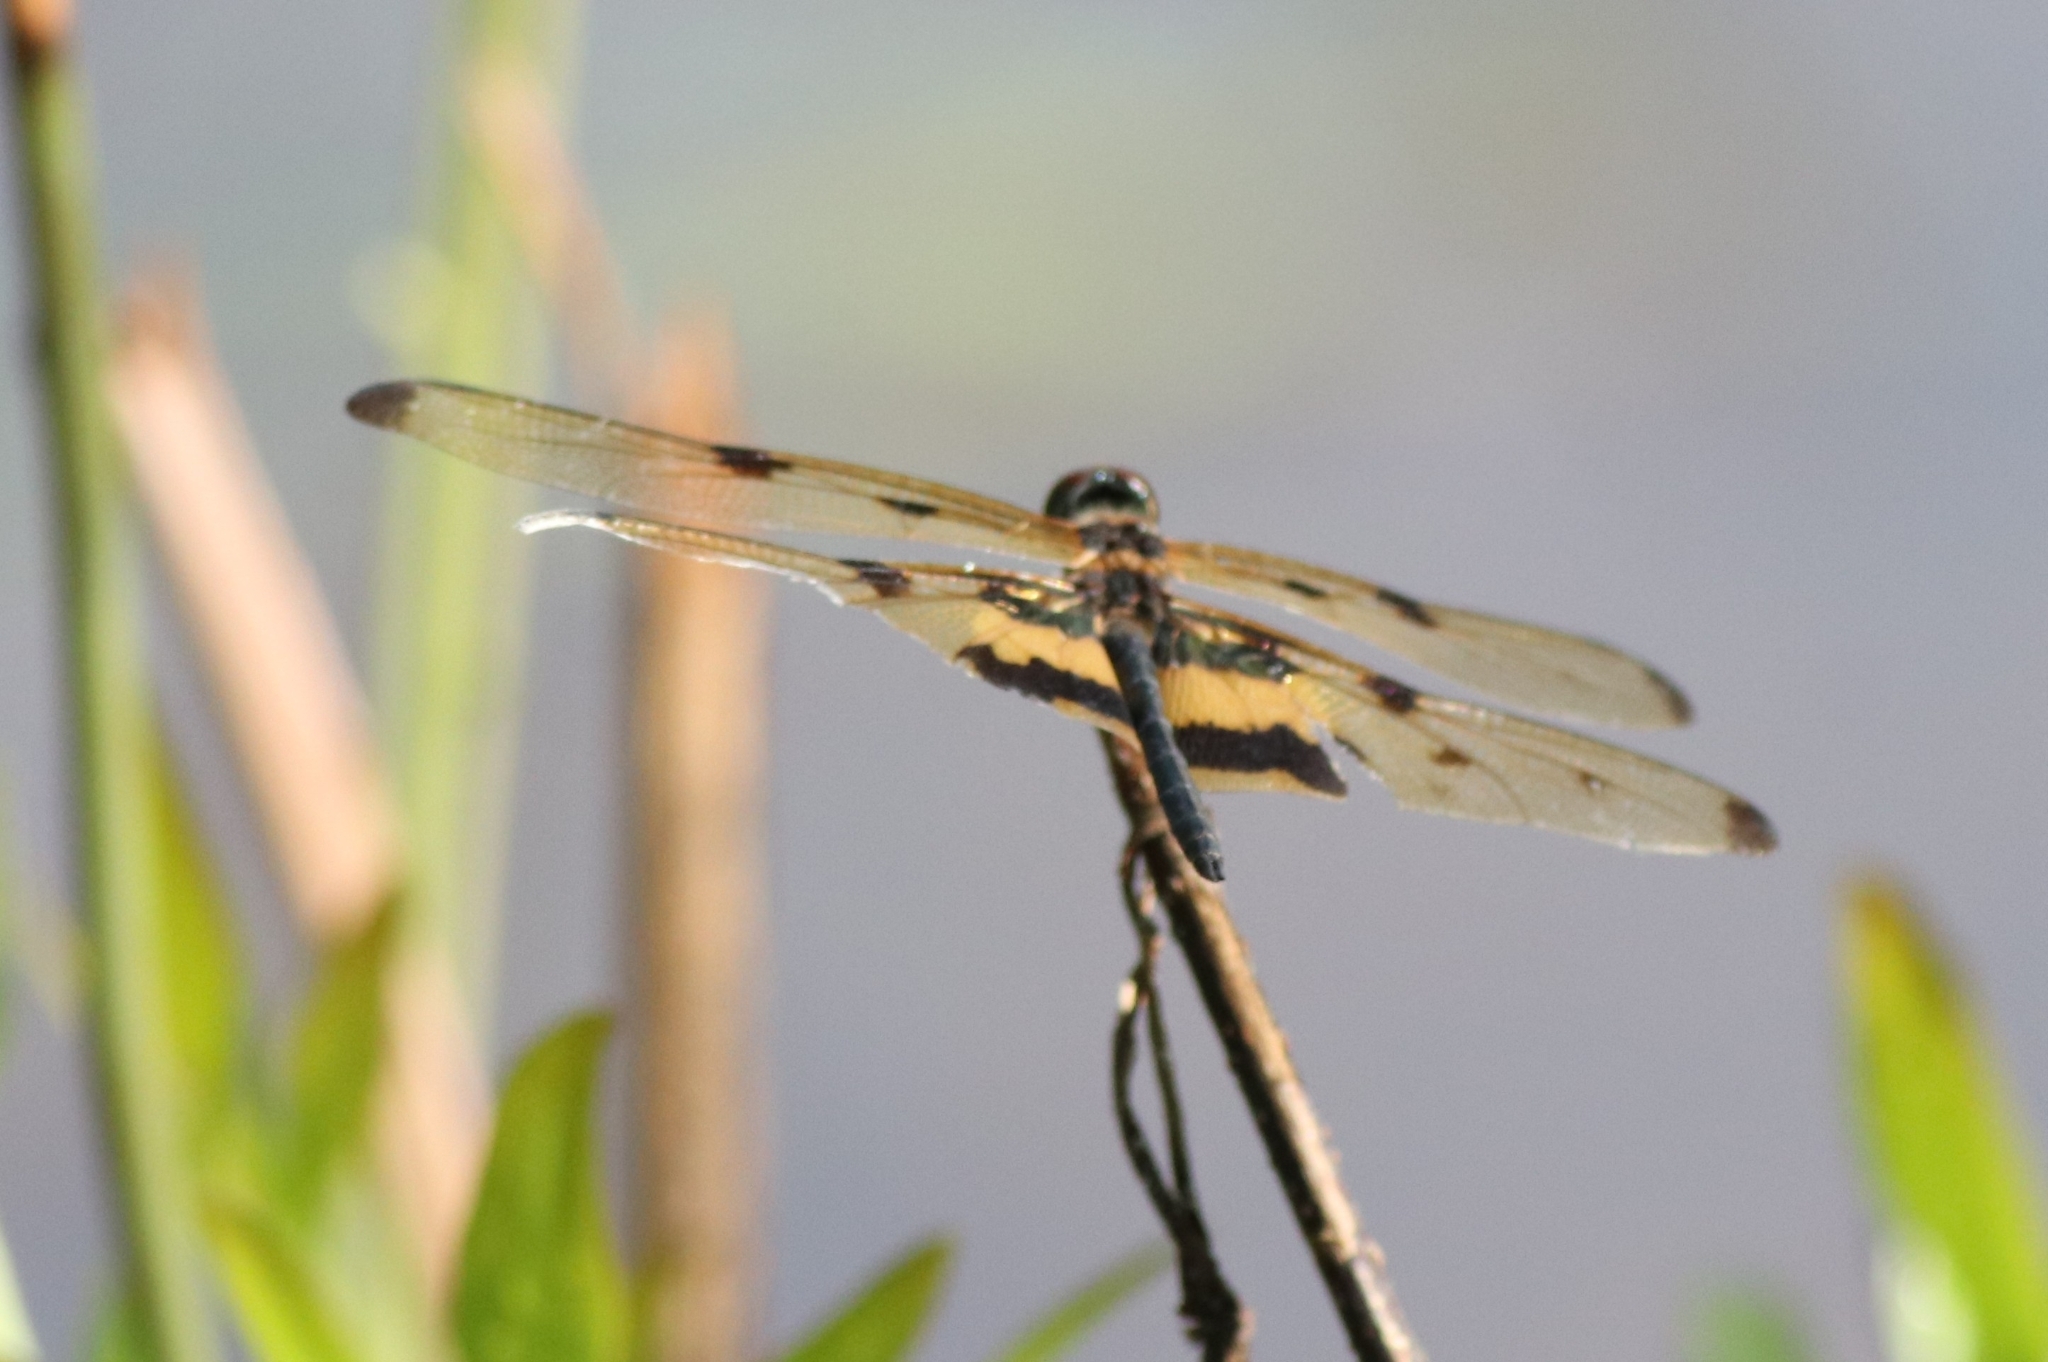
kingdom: Animalia
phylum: Arthropoda
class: Insecta
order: Odonata
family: Libellulidae
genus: Rhyothemis
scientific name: Rhyothemis variegata
